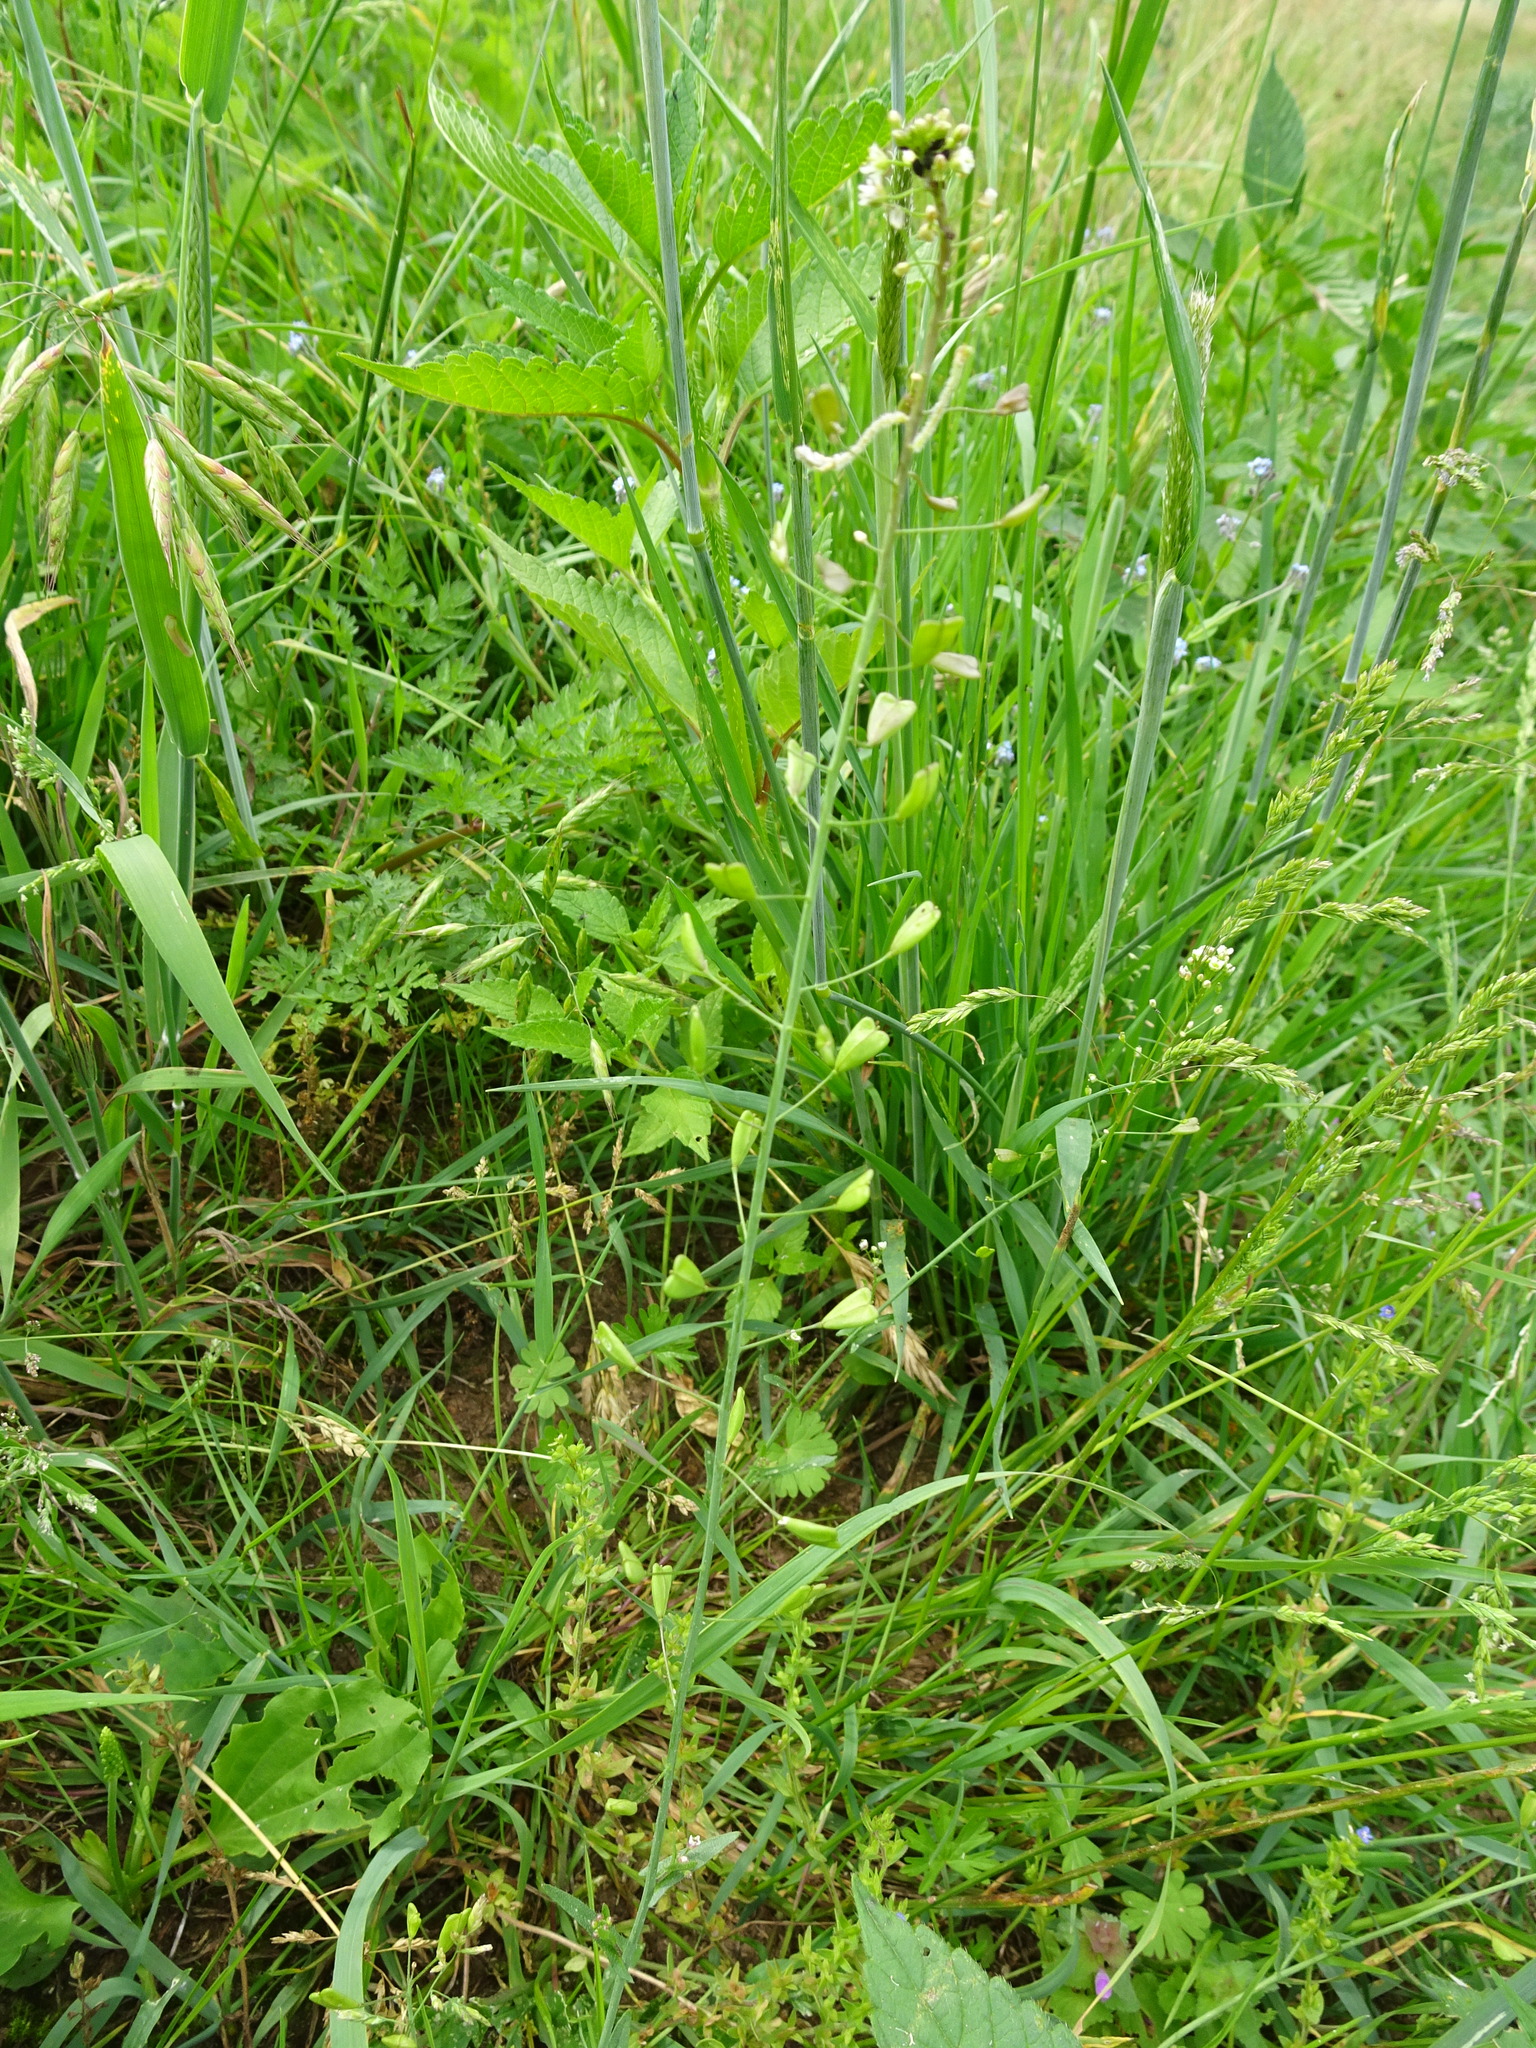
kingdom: Plantae
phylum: Tracheophyta
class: Magnoliopsida
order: Brassicales
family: Brassicaceae
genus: Capsella
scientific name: Capsella bursa-pastoris
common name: Shepherd's purse
